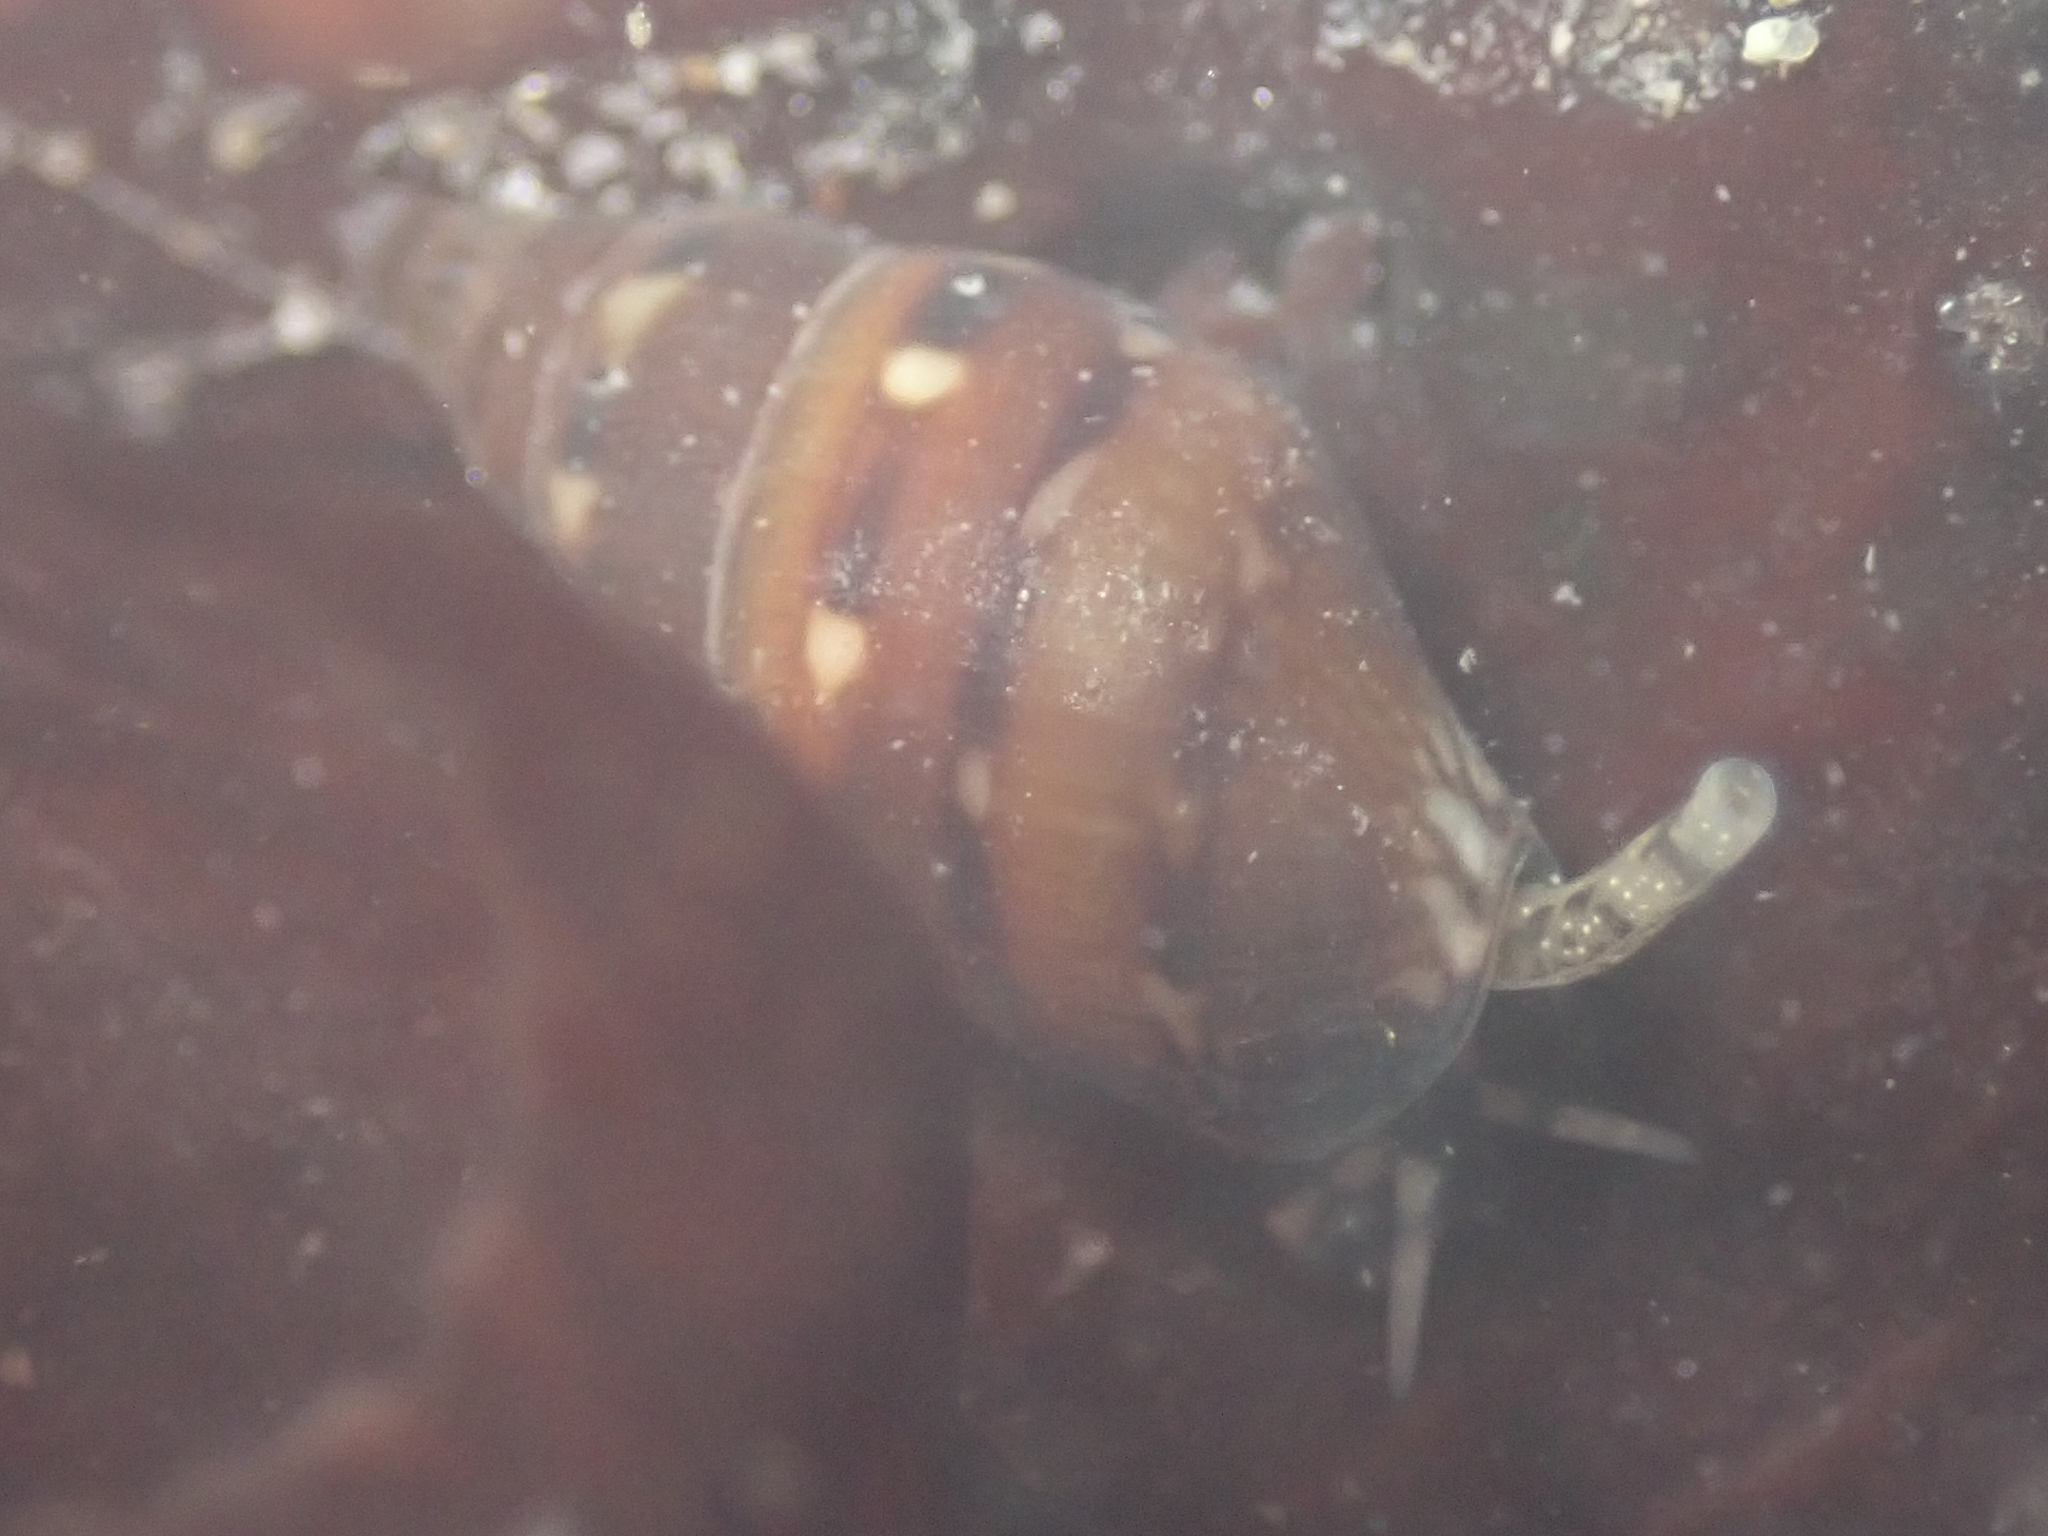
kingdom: Animalia
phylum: Mollusca
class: Gastropoda
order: Neogastropoda
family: Columbellidae
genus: Alia
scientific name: Alia carinata
